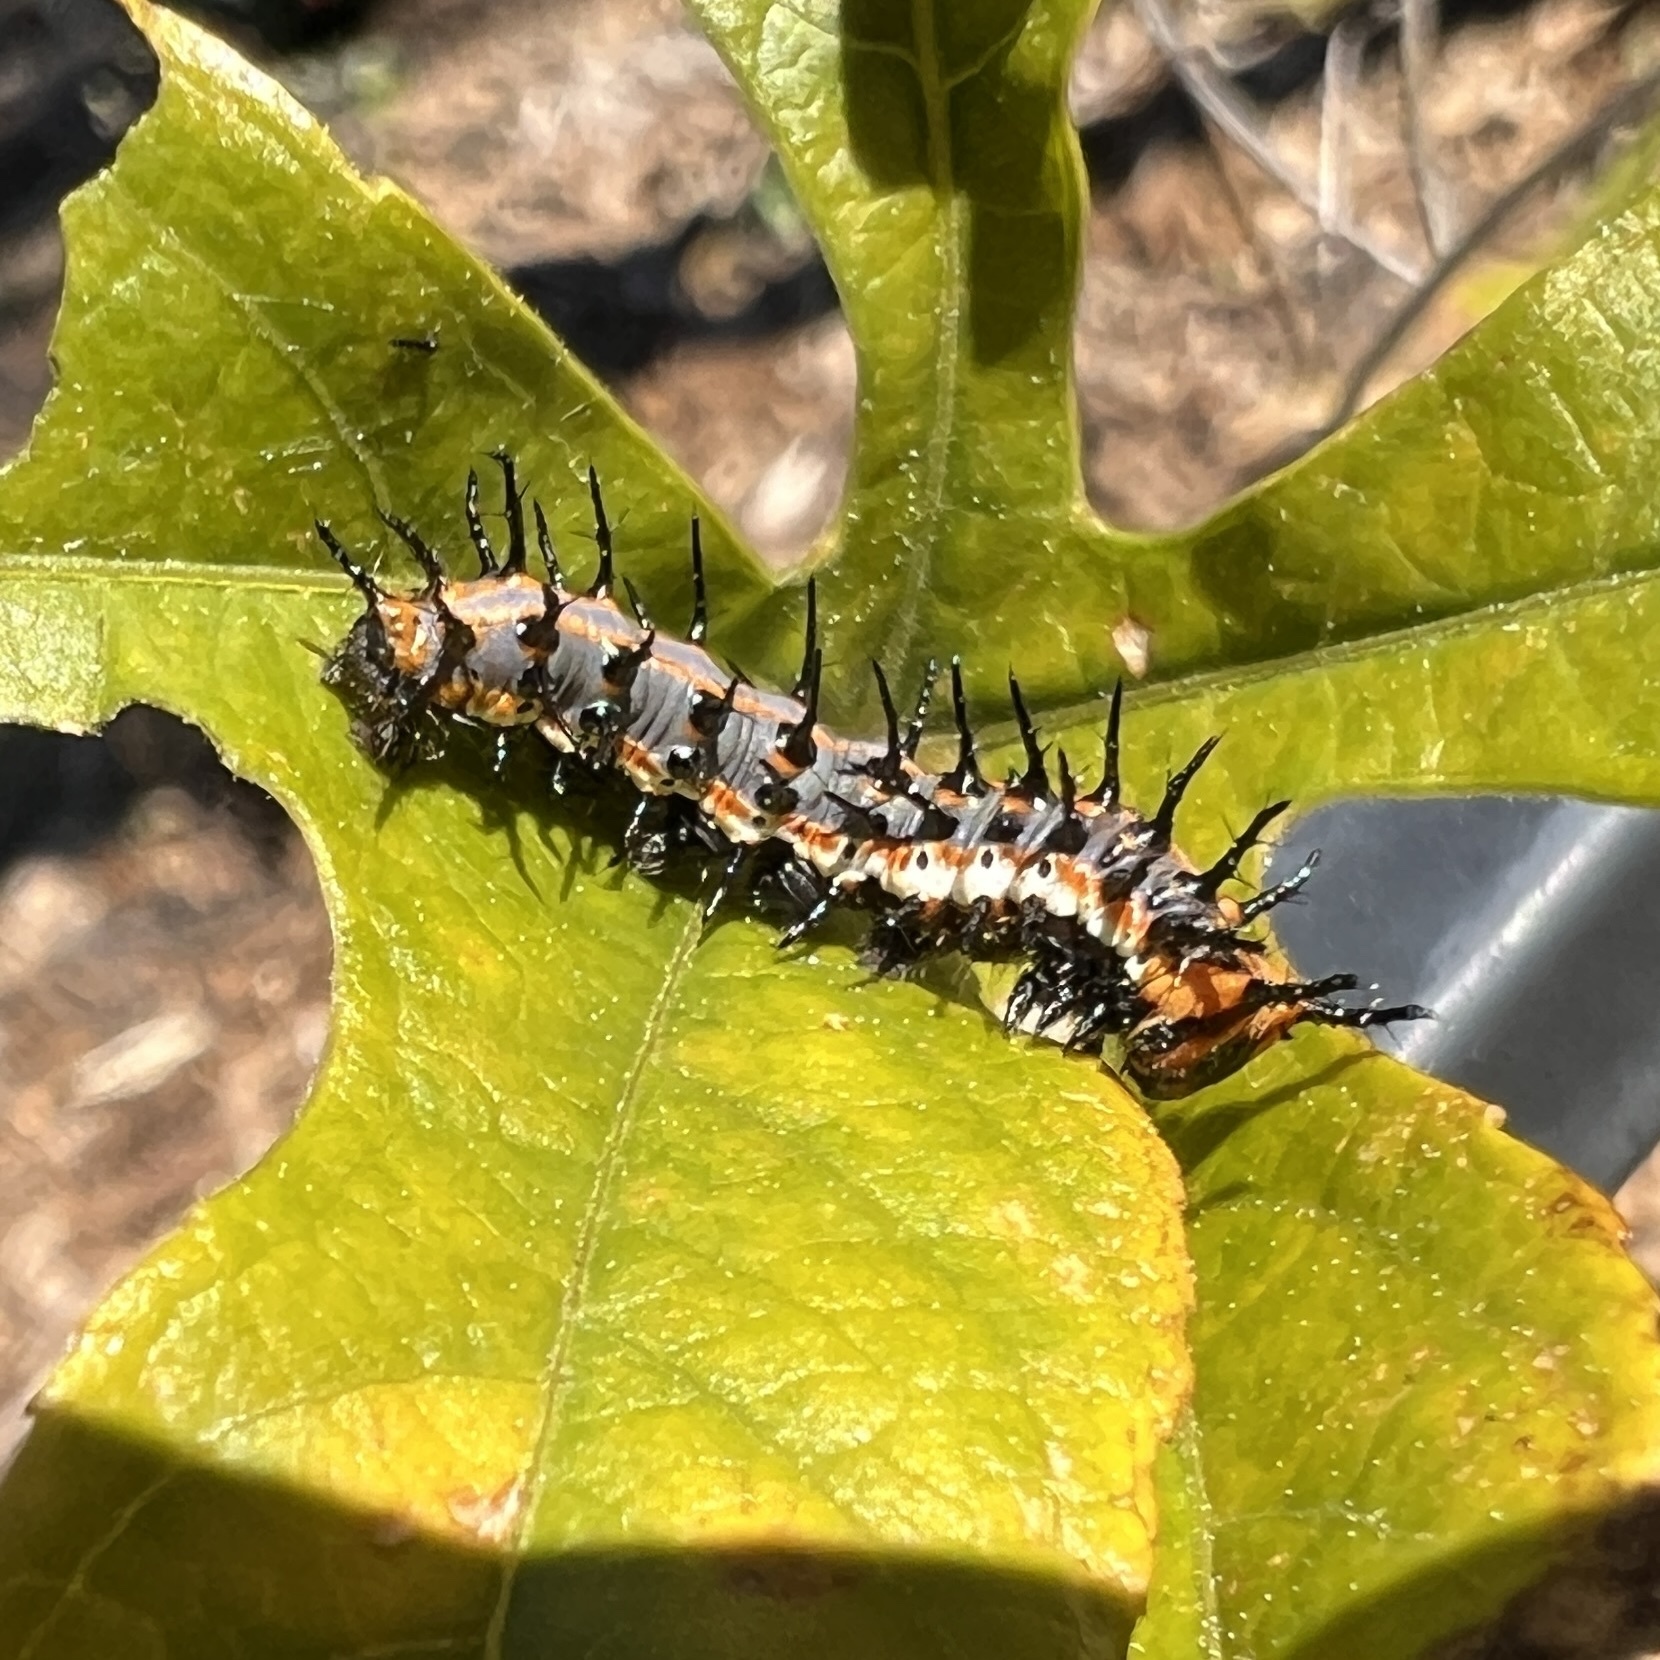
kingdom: Animalia
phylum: Arthropoda
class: Insecta
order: Lepidoptera
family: Nymphalidae
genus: Dione
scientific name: Dione vanillae
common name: Gulf fritillary
